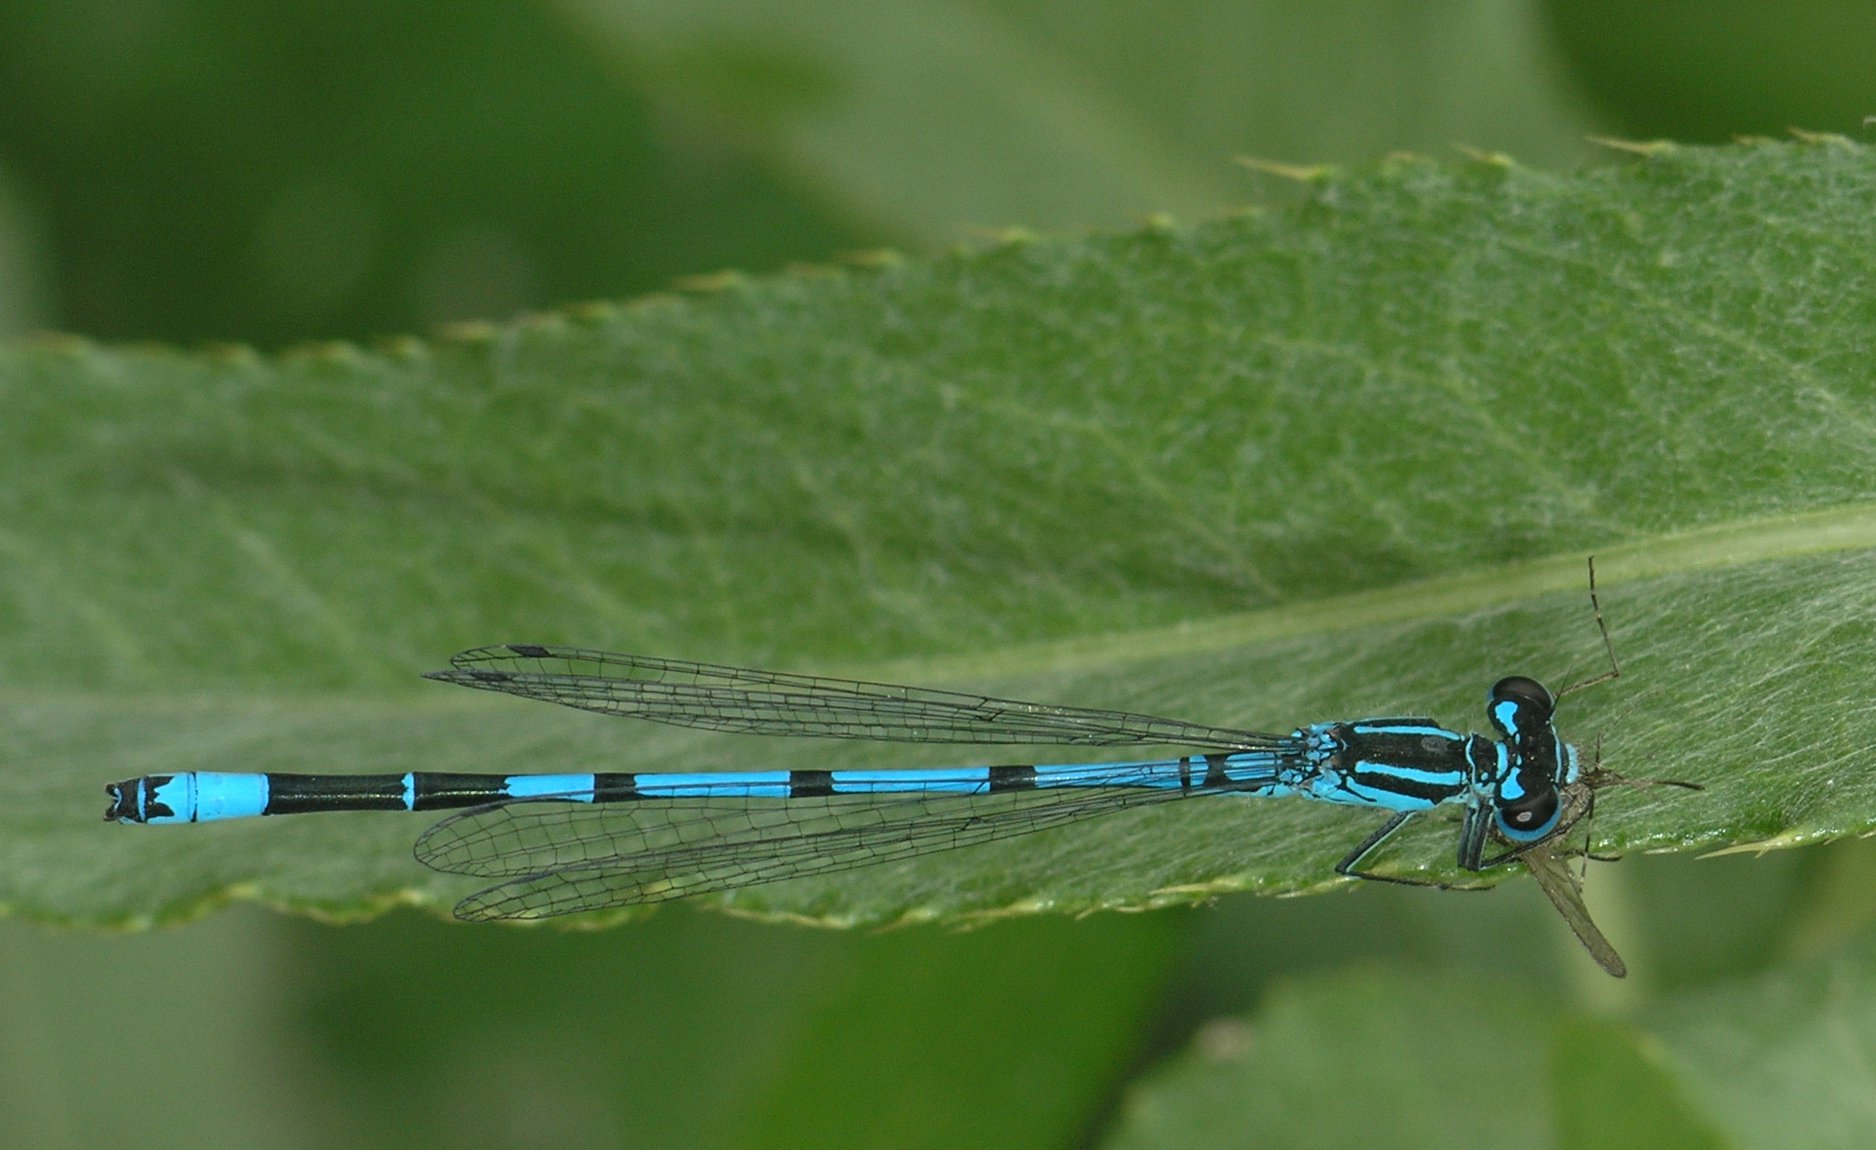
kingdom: Animalia
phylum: Arthropoda
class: Insecta
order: Odonata
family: Coenagrionidae
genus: Coenagrion
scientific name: Coenagrion puella
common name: Azure damselfly
